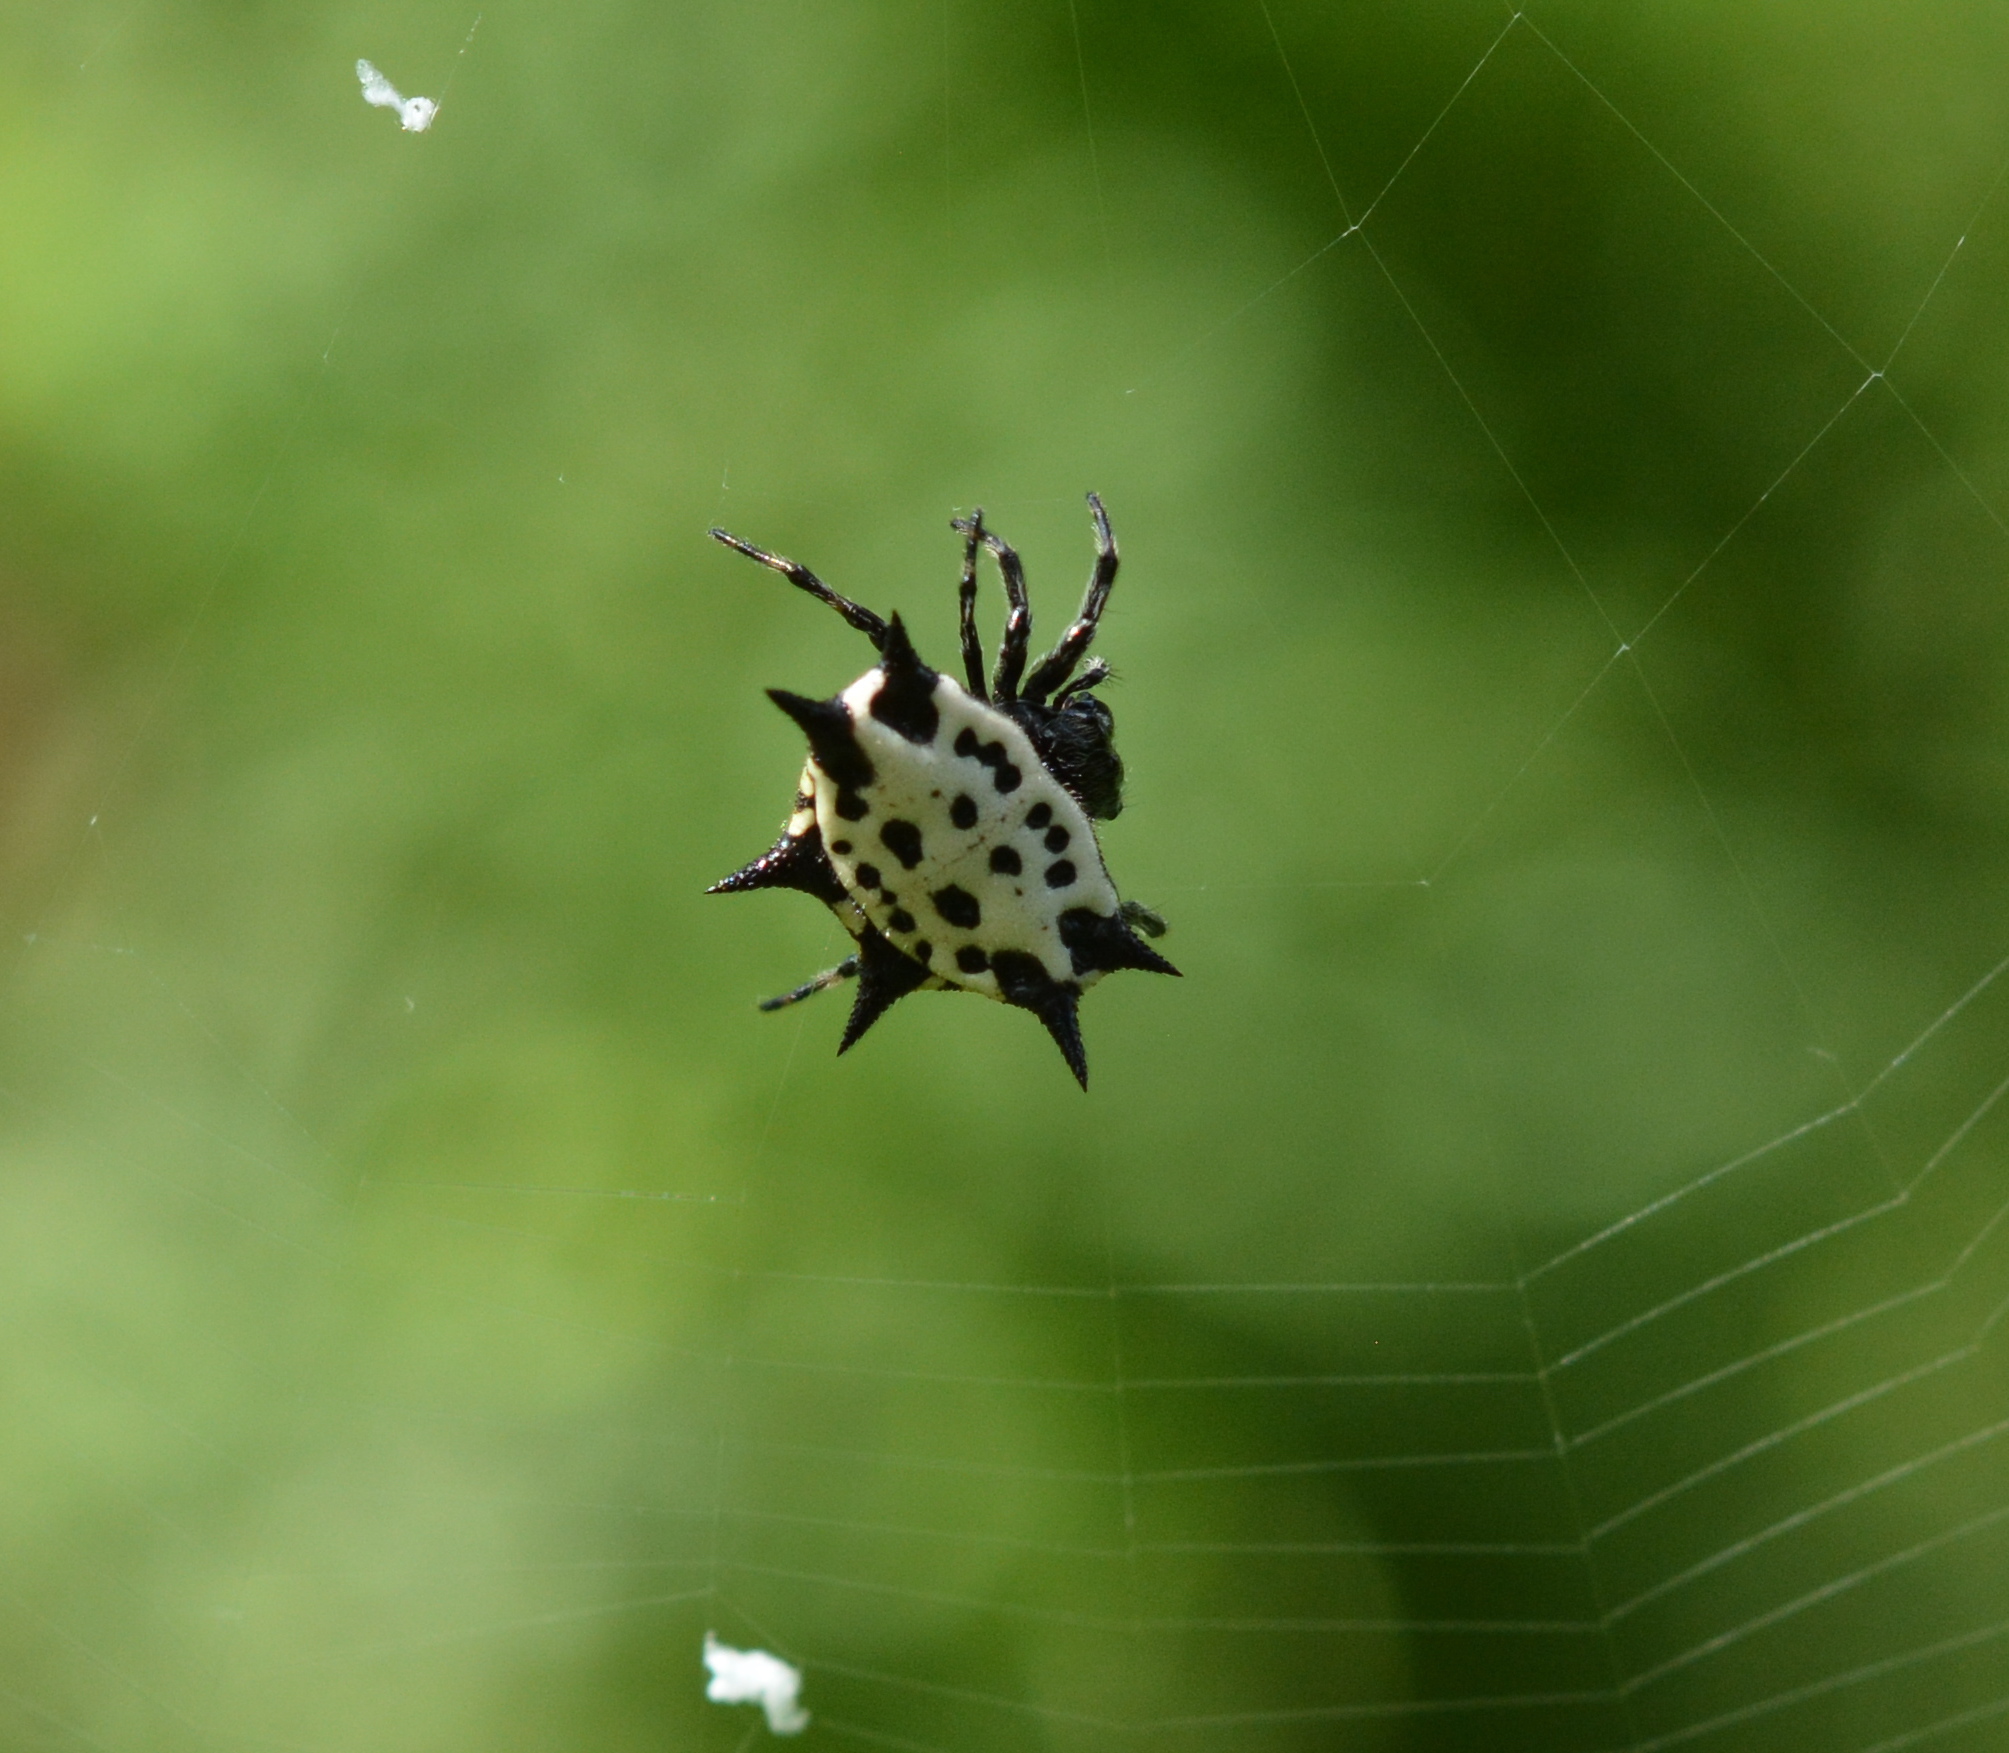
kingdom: Animalia
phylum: Arthropoda
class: Arachnida
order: Araneae
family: Araneidae
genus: Gasteracantha
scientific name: Gasteracantha cancriformis
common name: Orb weavers
